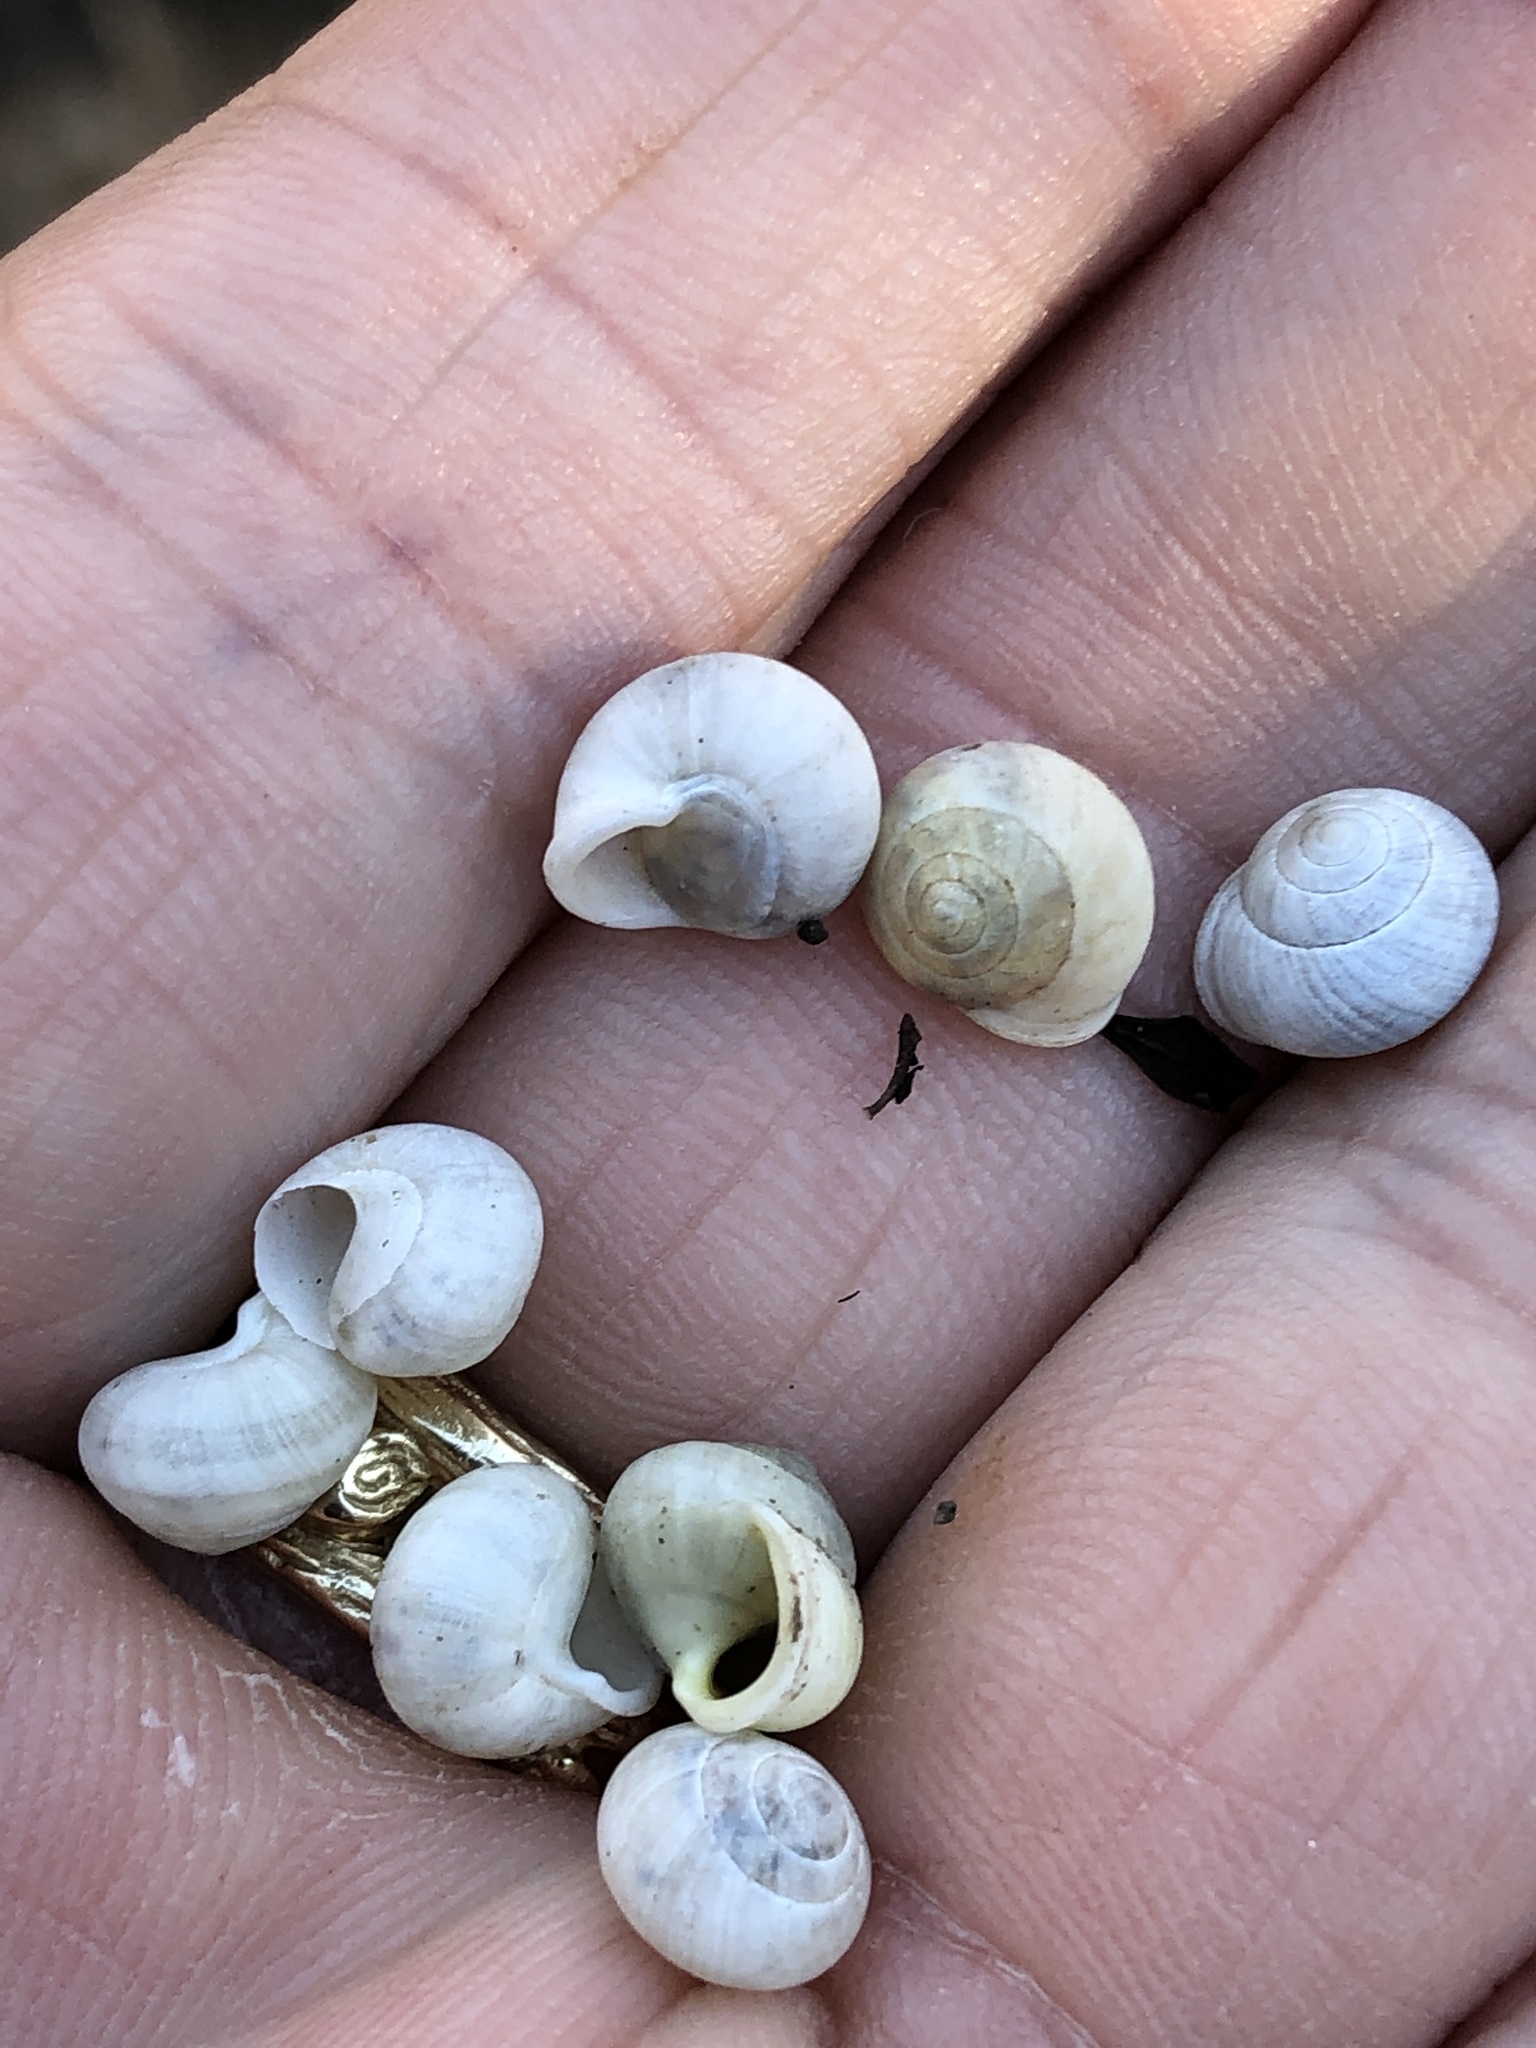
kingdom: Animalia
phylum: Mollusca
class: Gastropoda
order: Cycloneritida
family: Helicinidae
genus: Helicina
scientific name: Helicina orbiculata
